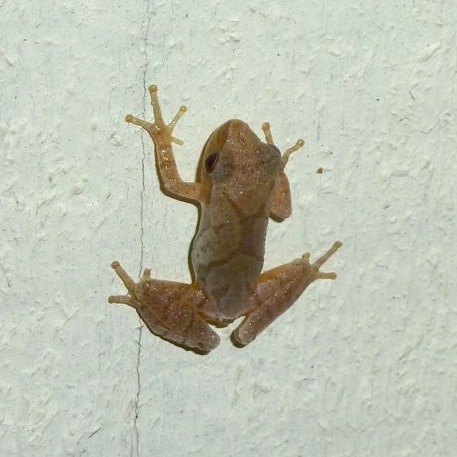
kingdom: Animalia
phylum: Chordata
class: Amphibia
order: Anura
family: Hylidae
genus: Pseudacris
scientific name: Pseudacris crucifer
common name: Spring peeper
